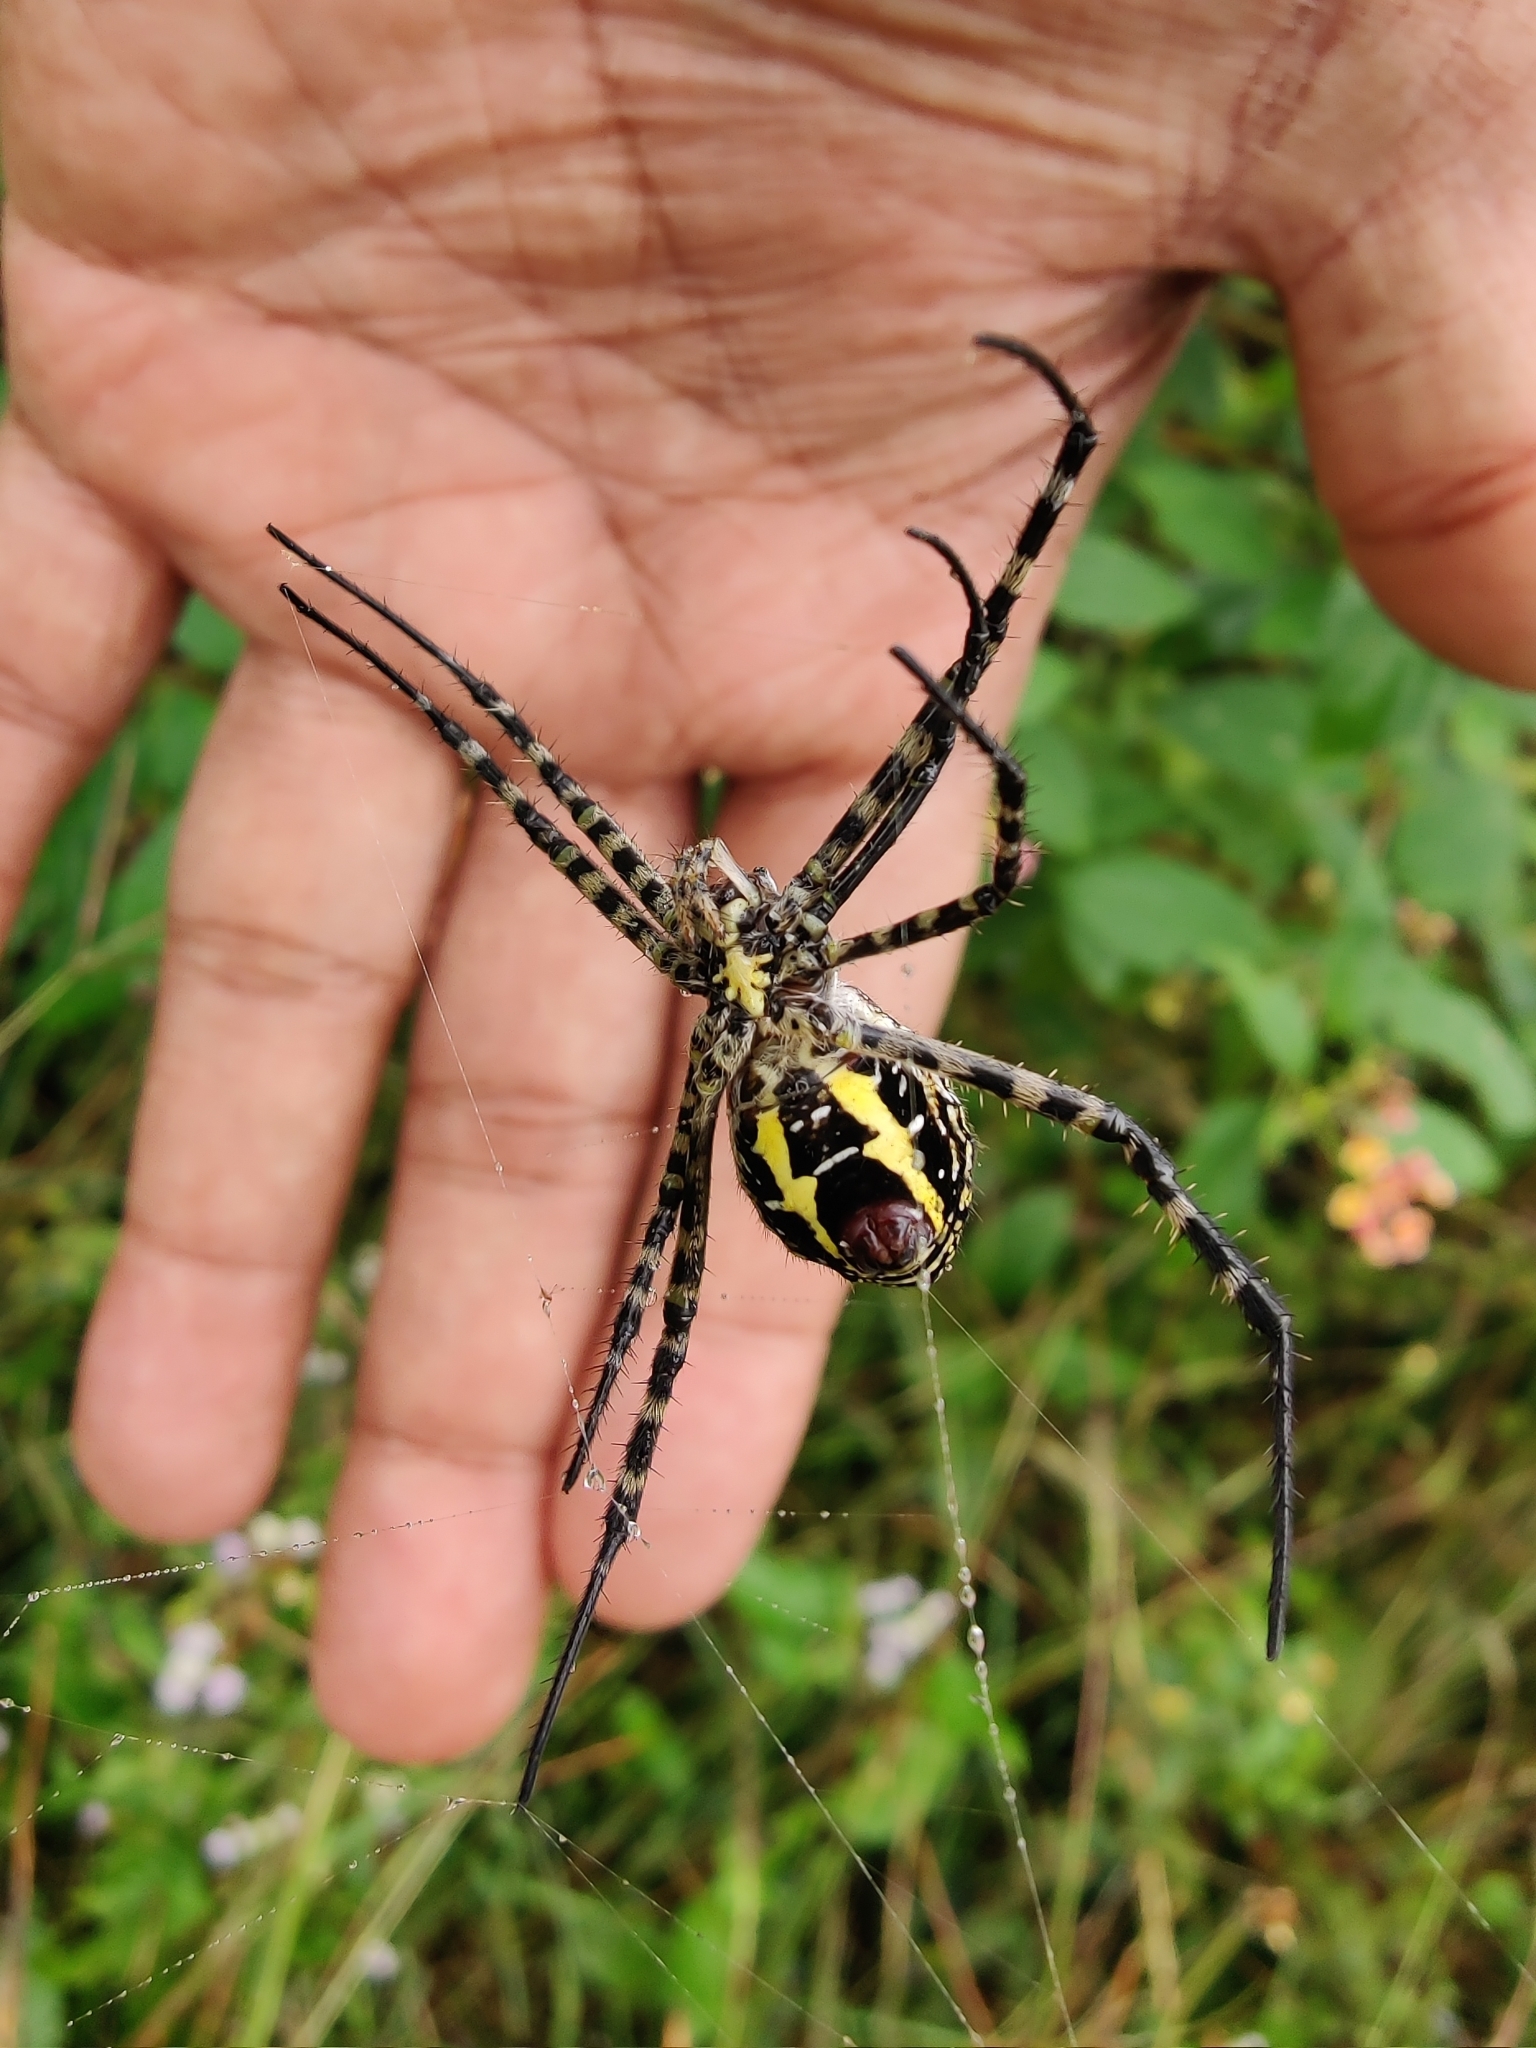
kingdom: Animalia
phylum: Arthropoda
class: Arachnida
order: Araneae
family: Araneidae
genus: Argiope
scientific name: Argiope aemula
